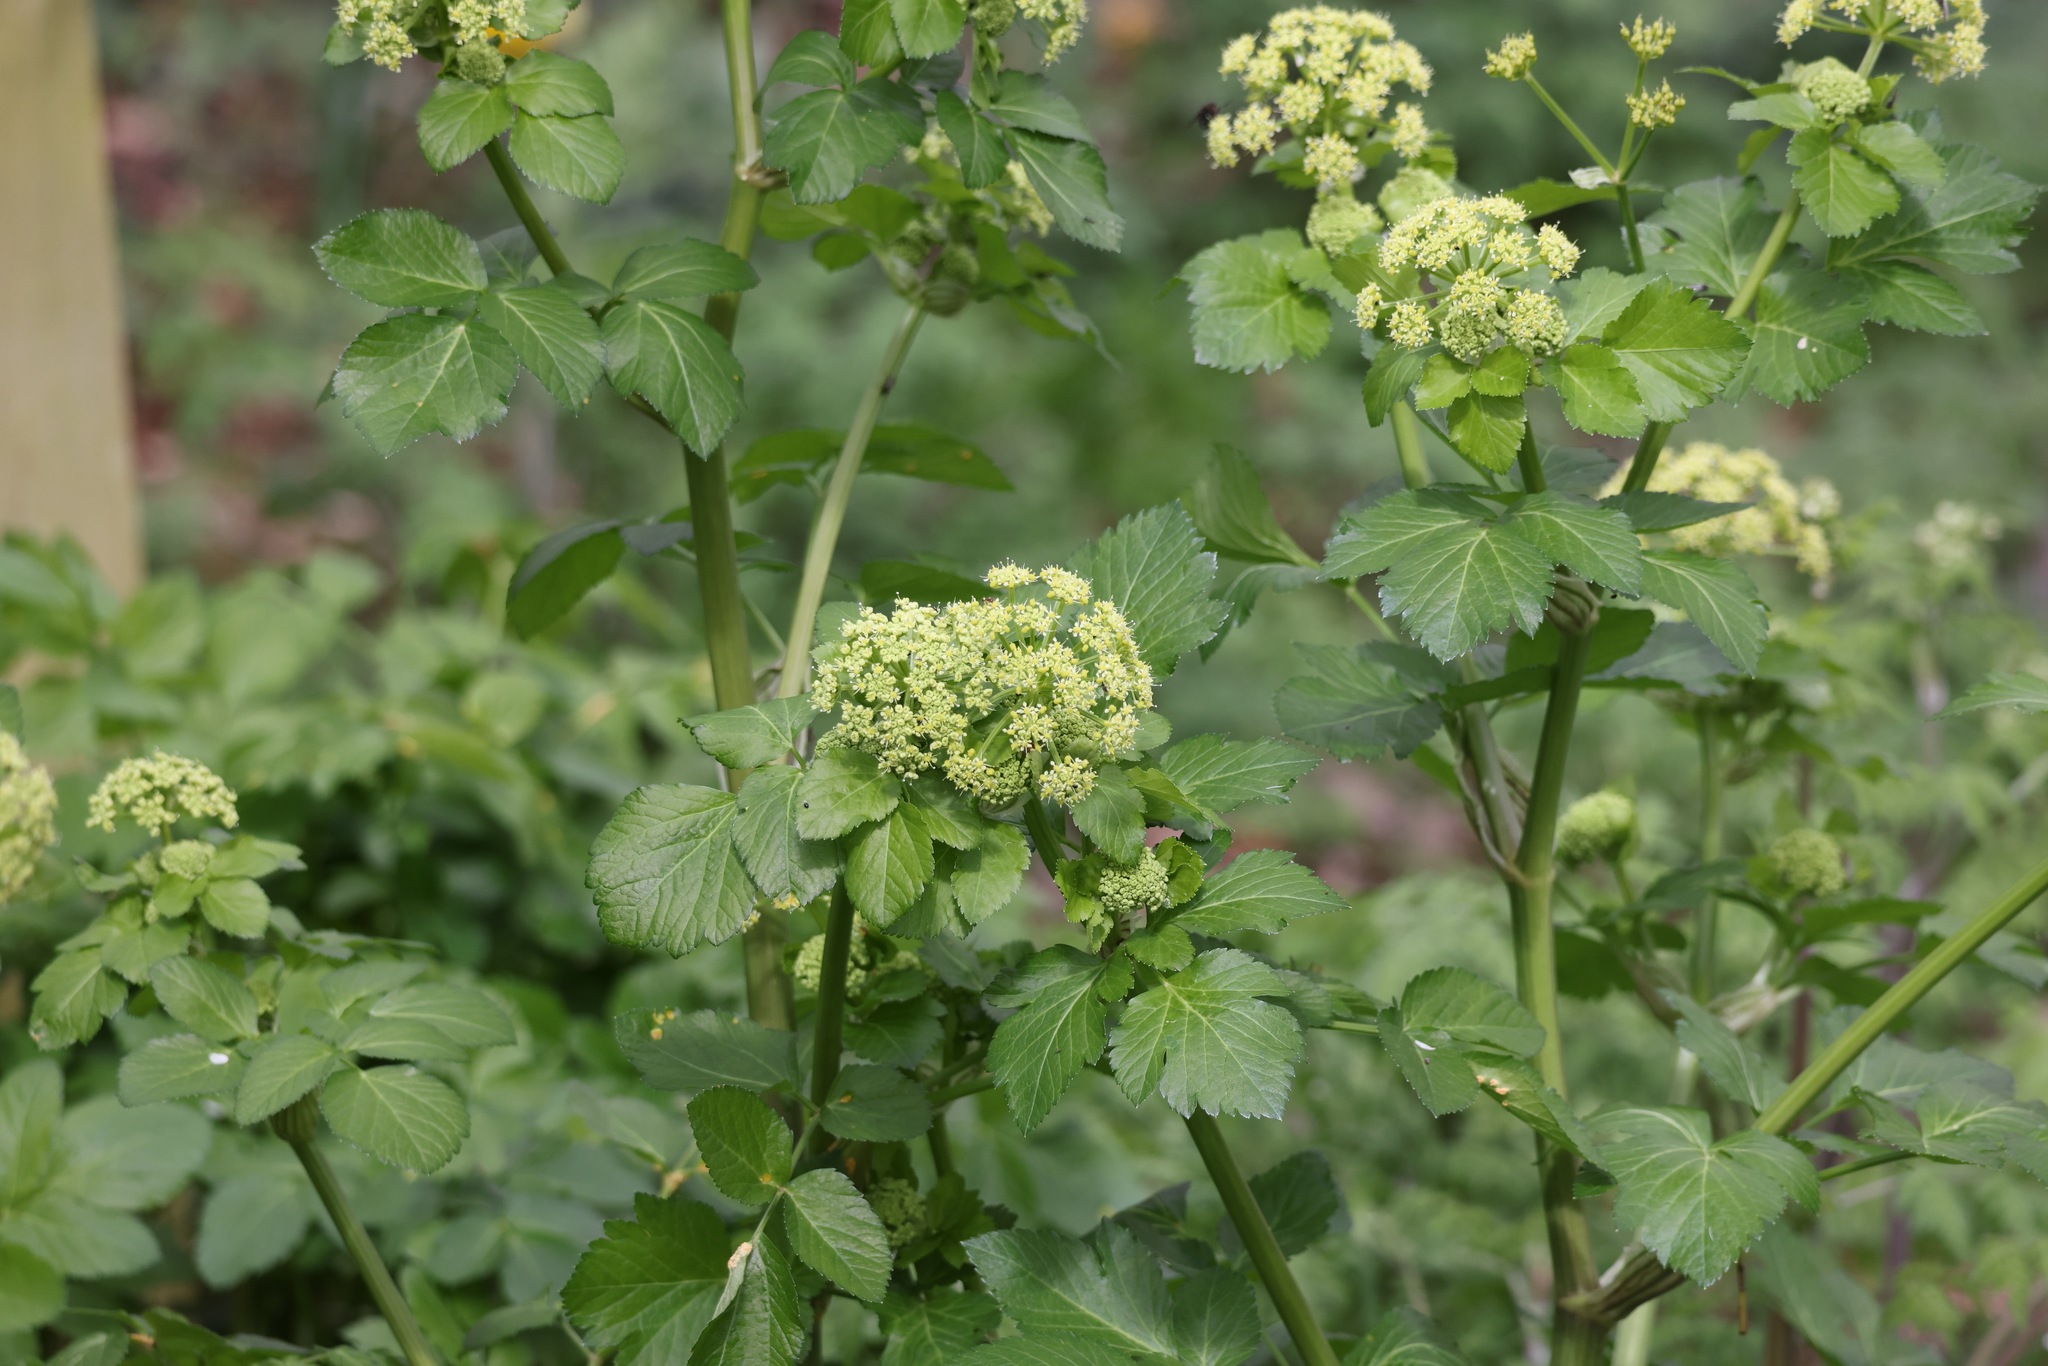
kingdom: Plantae
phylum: Tracheophyta
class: Magnoliopsida
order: Apiales
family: Apiaceae
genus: Smyrnium
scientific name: Smyrnium olusatrum
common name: Alexanders
